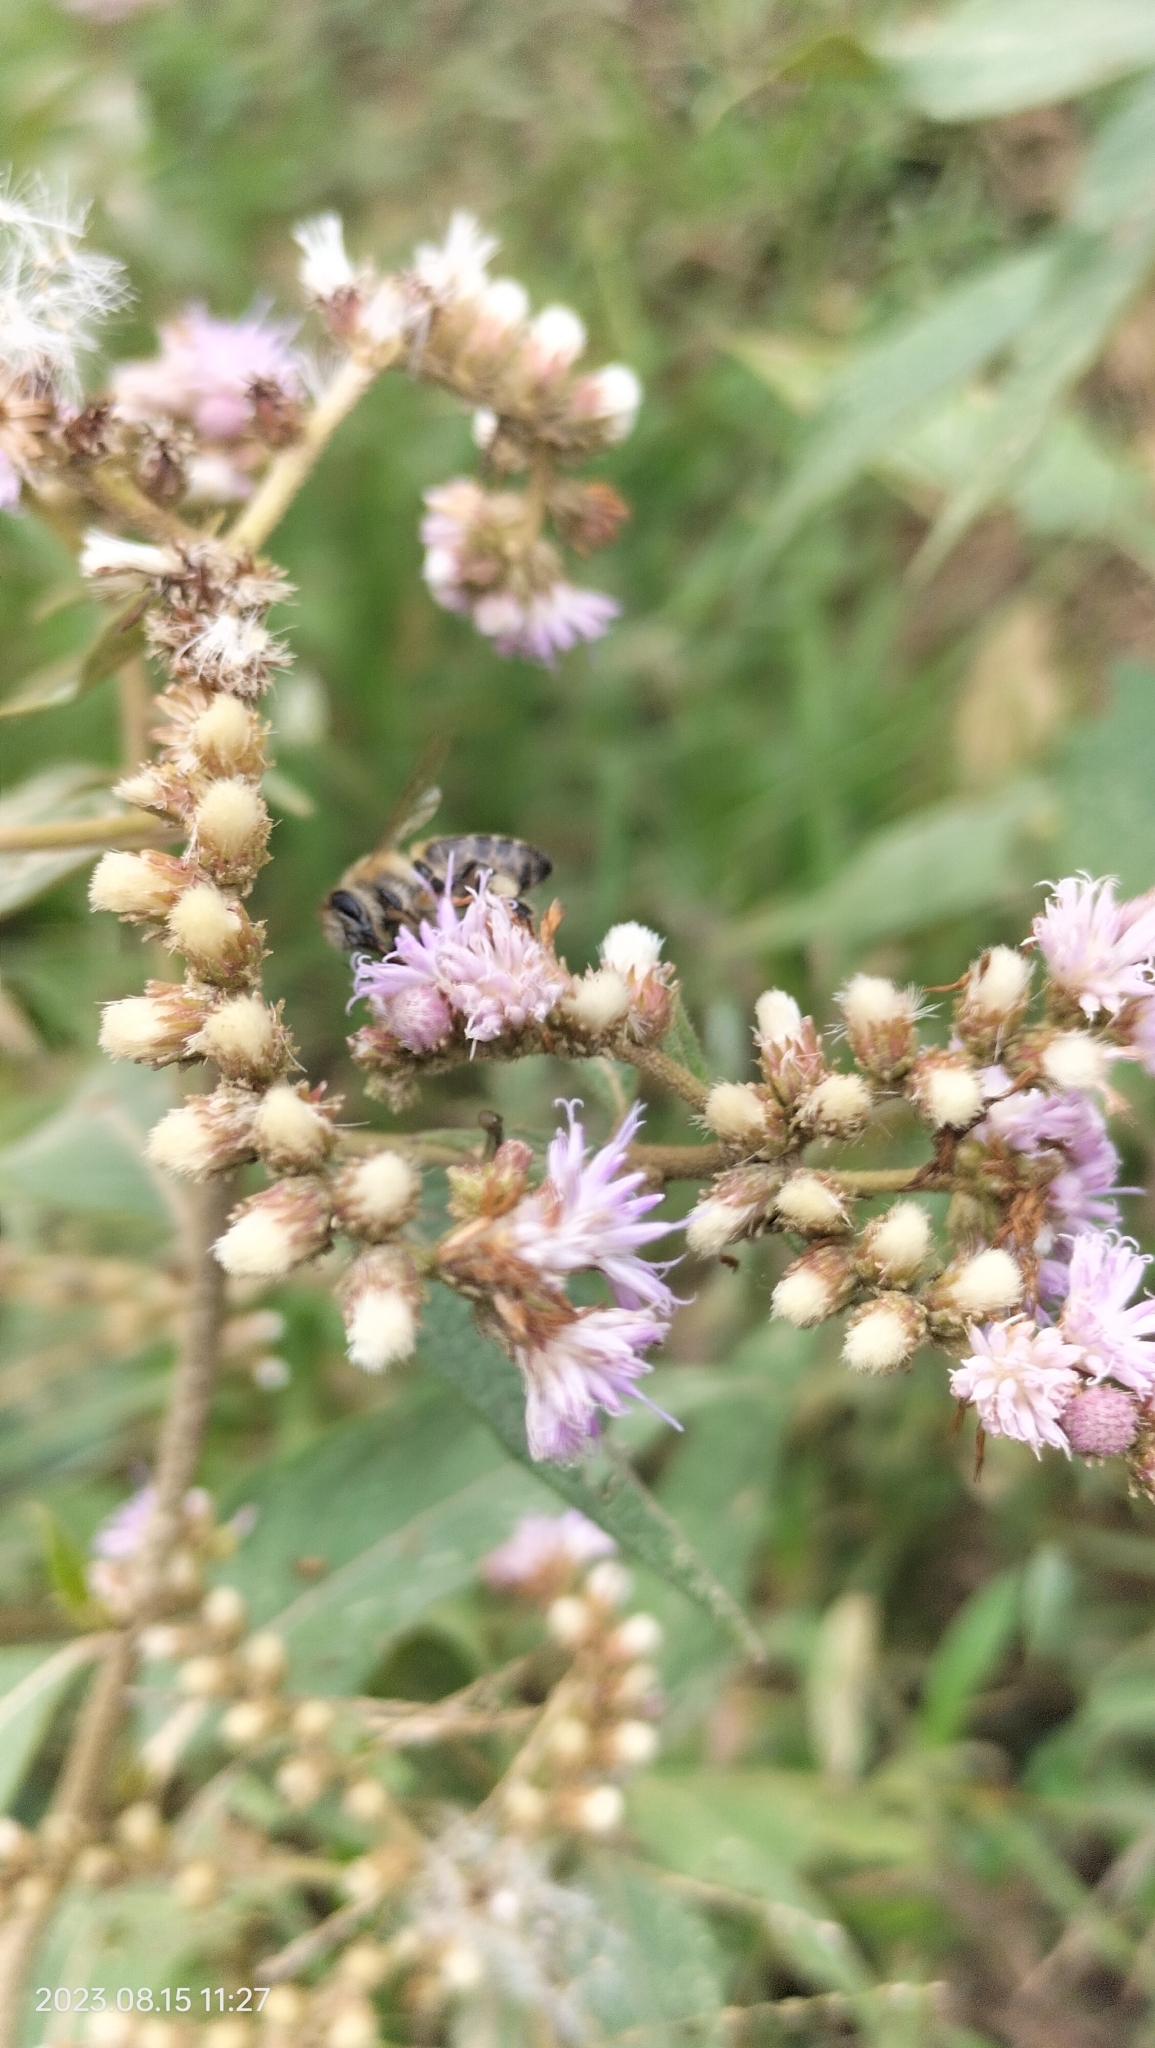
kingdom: Animalia
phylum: Arthropoda
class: Insecta
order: Hymenoptera
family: Apidae
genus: Apis
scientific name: Apis mellifera
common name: Honey bee
